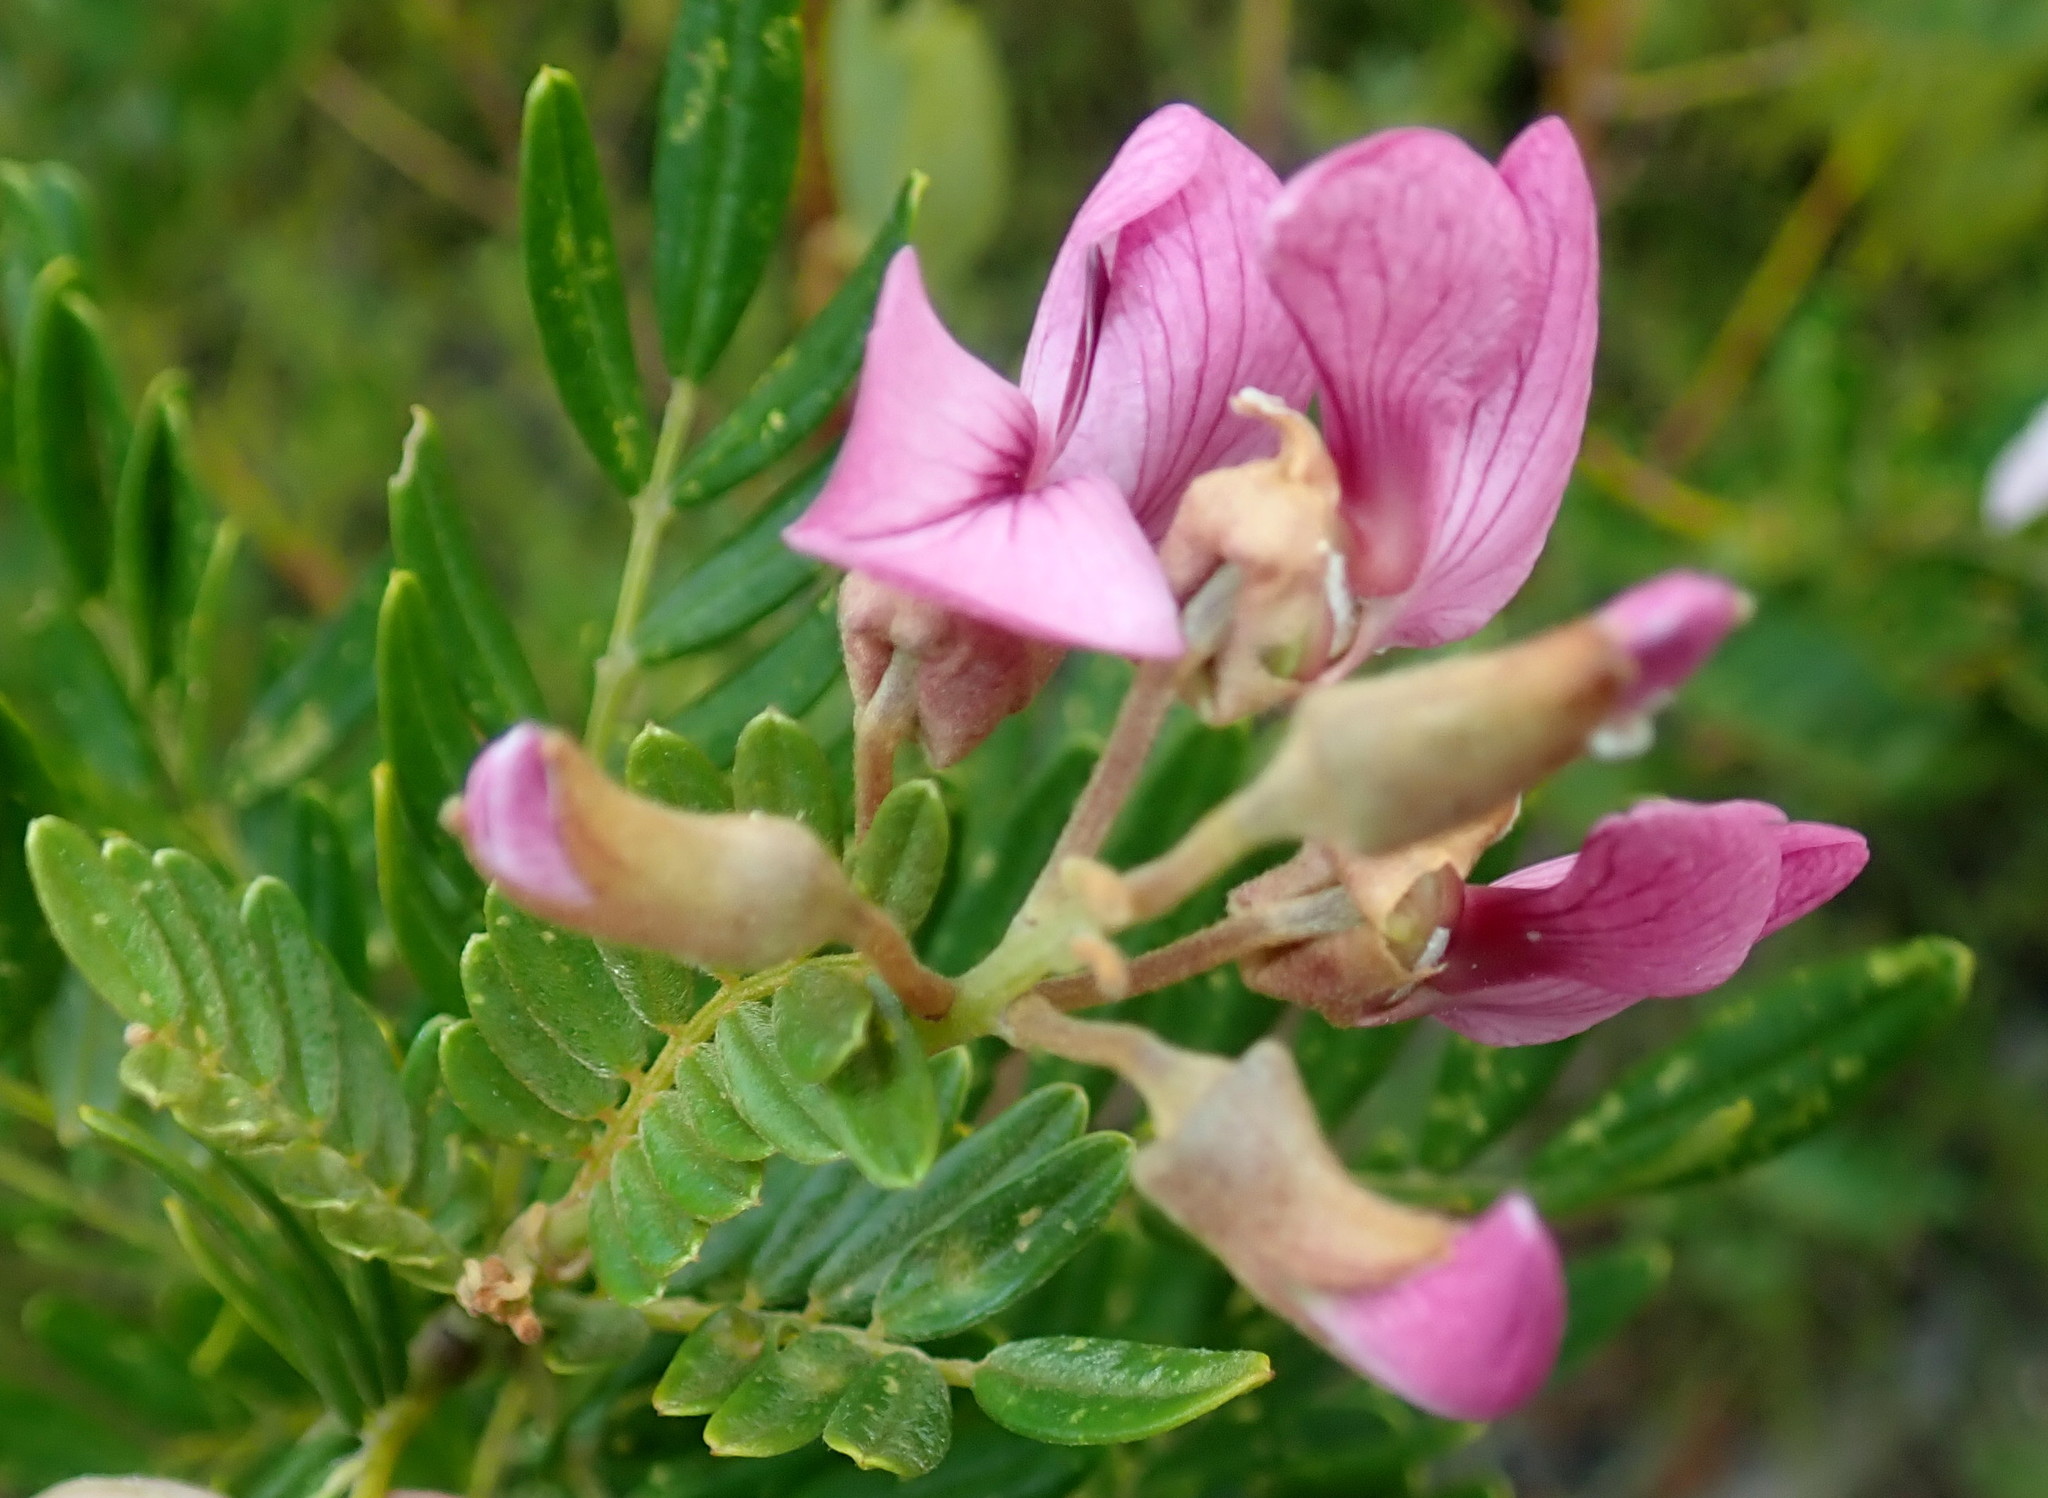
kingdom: Plantae
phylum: Tracheophyta
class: Magnoliopsida
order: Fabales
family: Fabaceae
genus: Virgilia
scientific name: Virgilia divaricata
